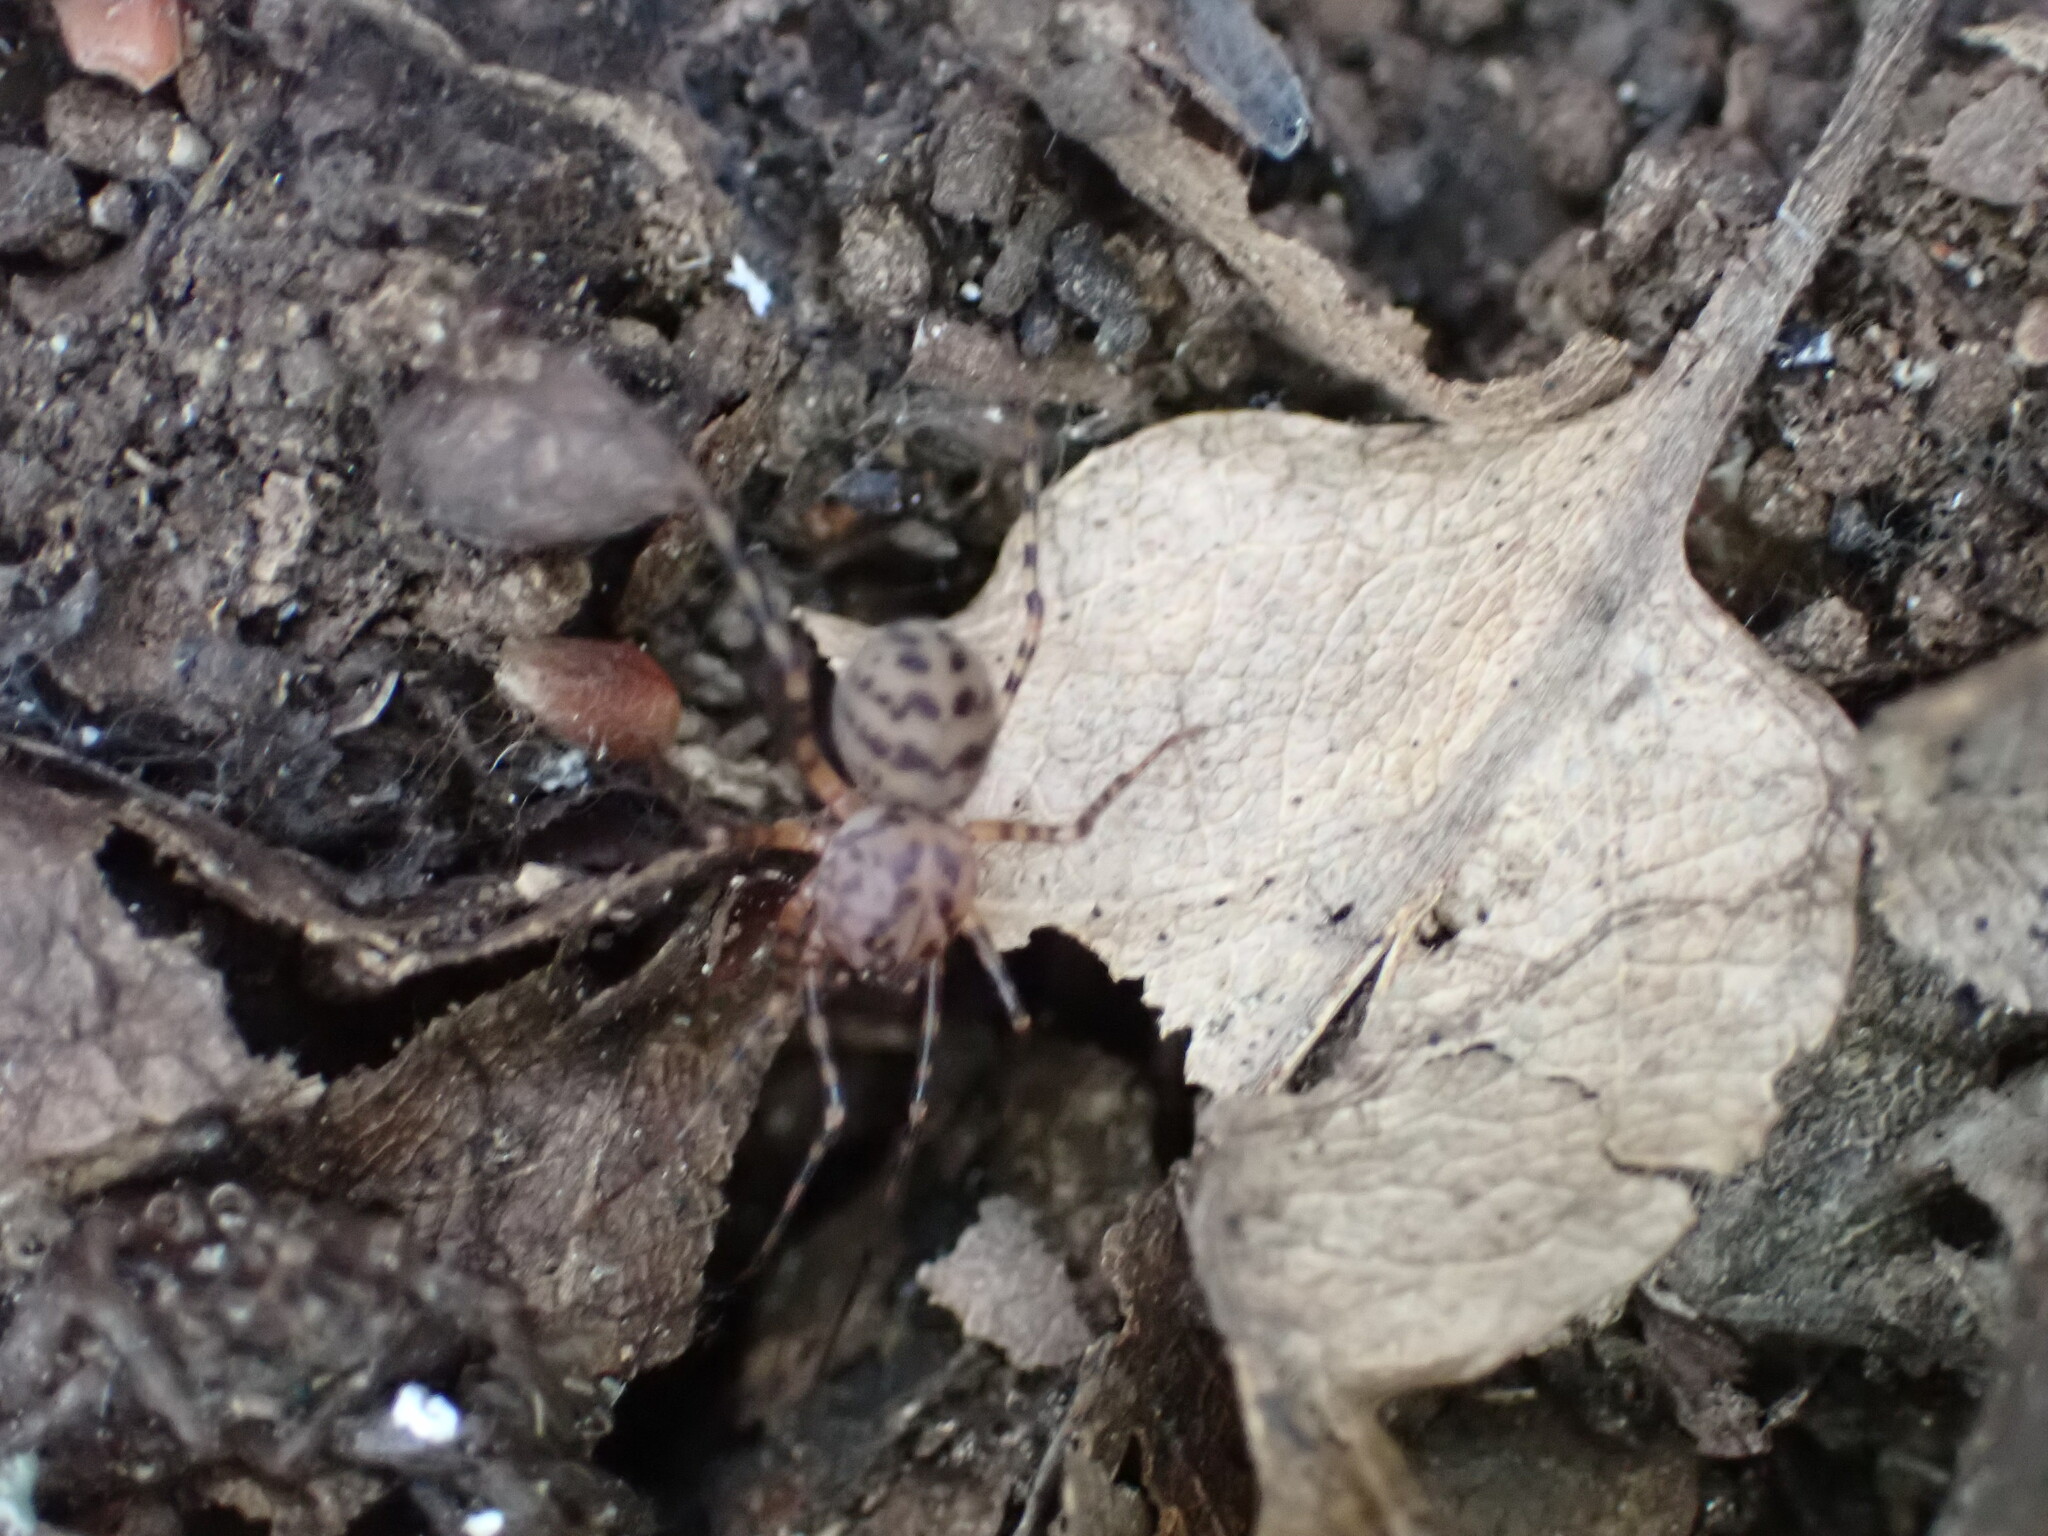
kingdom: Animalia
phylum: Arthropoda
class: Arachnida
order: Araneae
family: Scytodidae
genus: Scytodes
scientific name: Scytodes thoracica
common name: Spitting spider
